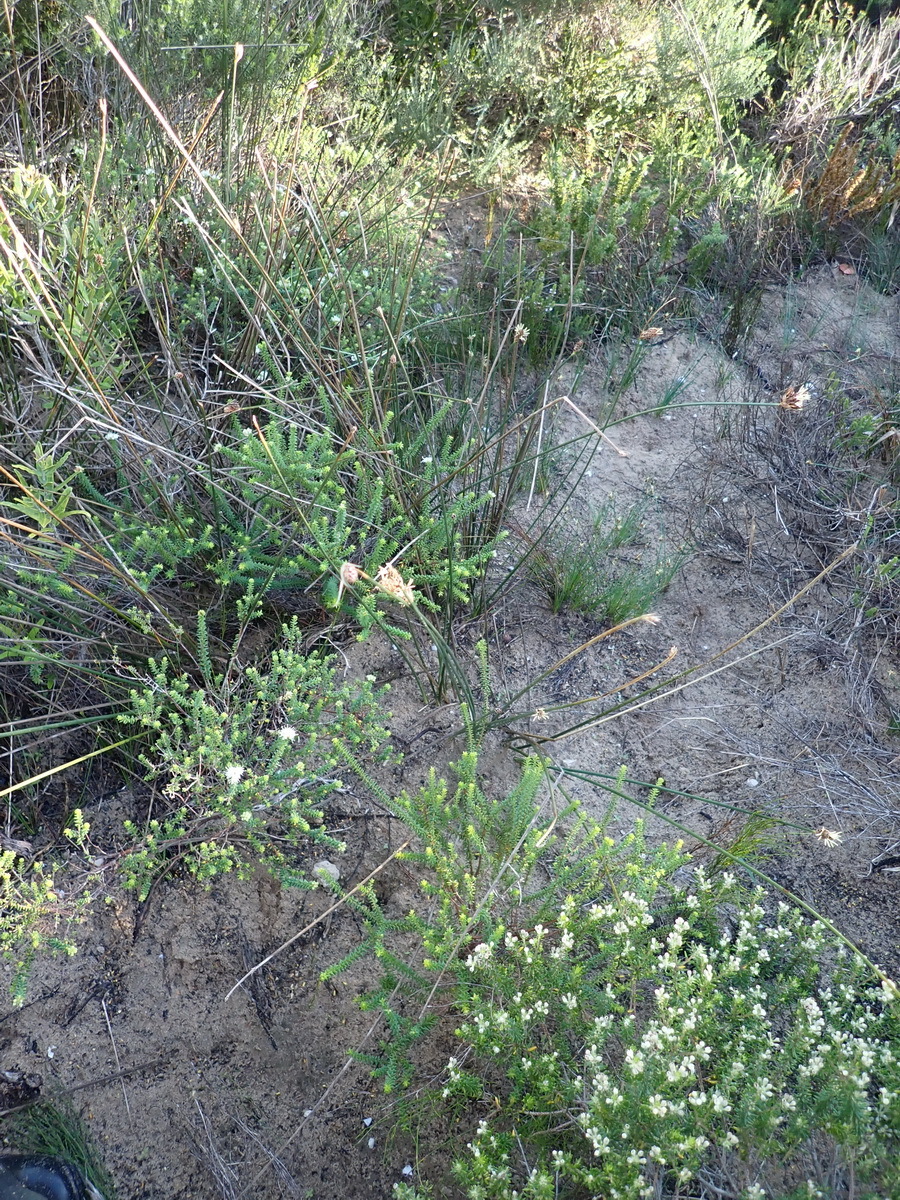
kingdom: Plantae
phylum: Tracheophyta
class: Liliopsida
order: Poales
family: Cyperaceae
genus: Hellmuthia
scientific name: Hellmuthia membranacea
